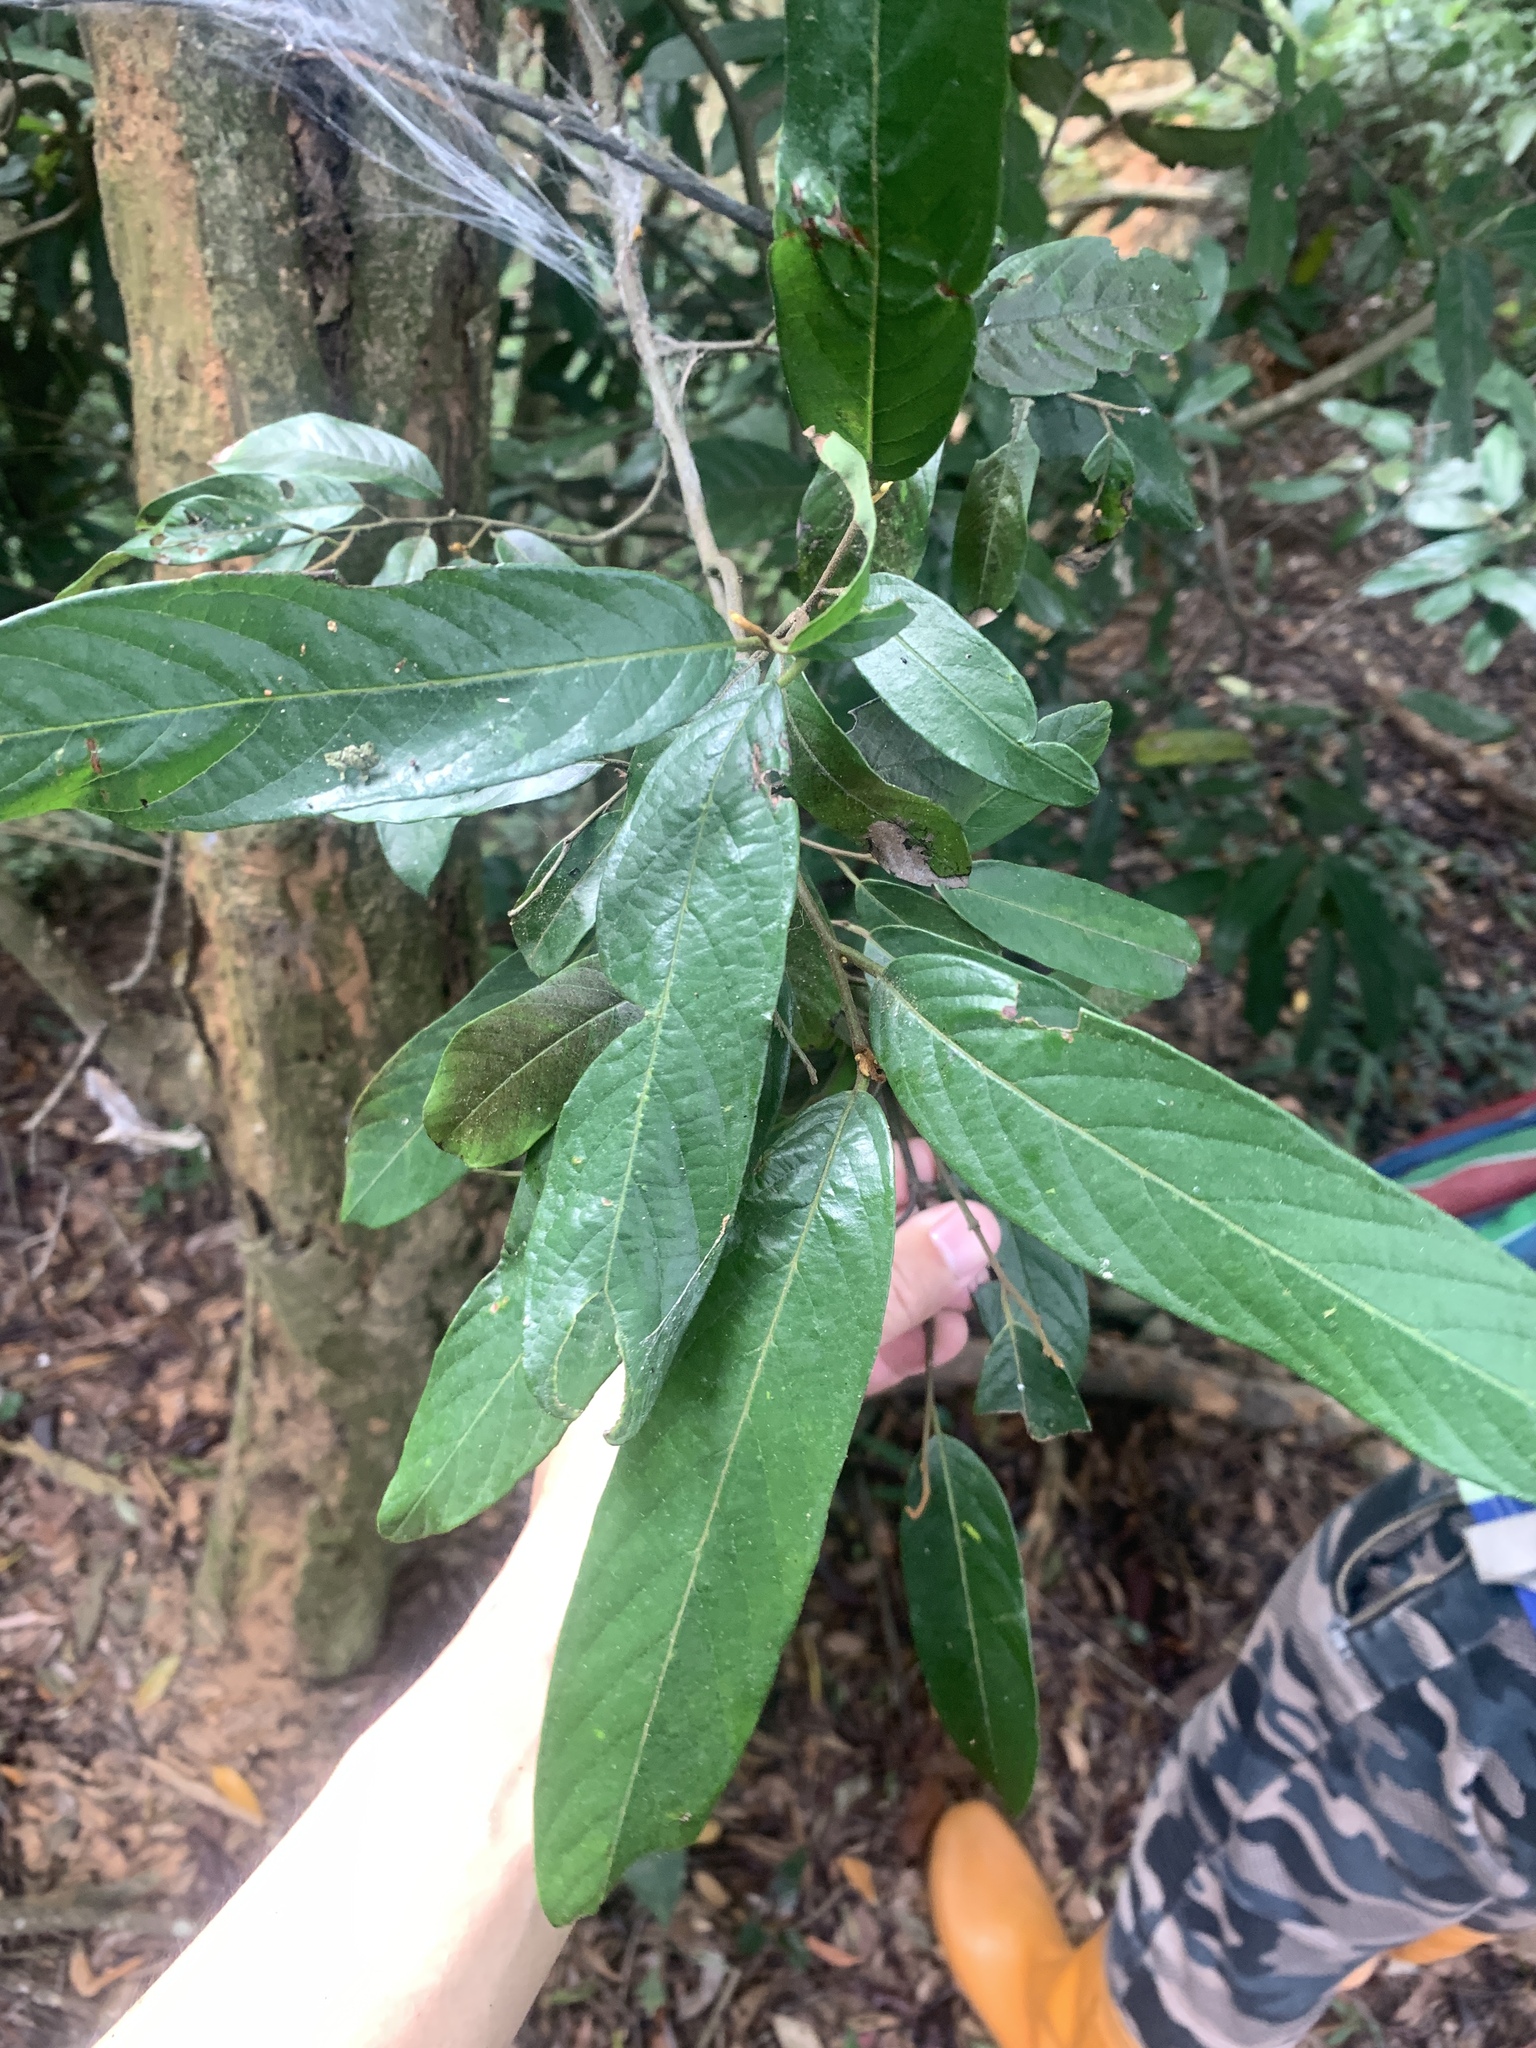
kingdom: Plantae
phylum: Tracheophyta
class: Magnoliopsida
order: Magnoliales
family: Annonaceae
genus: Fissistigma
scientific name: Fissistigma oldhamii
